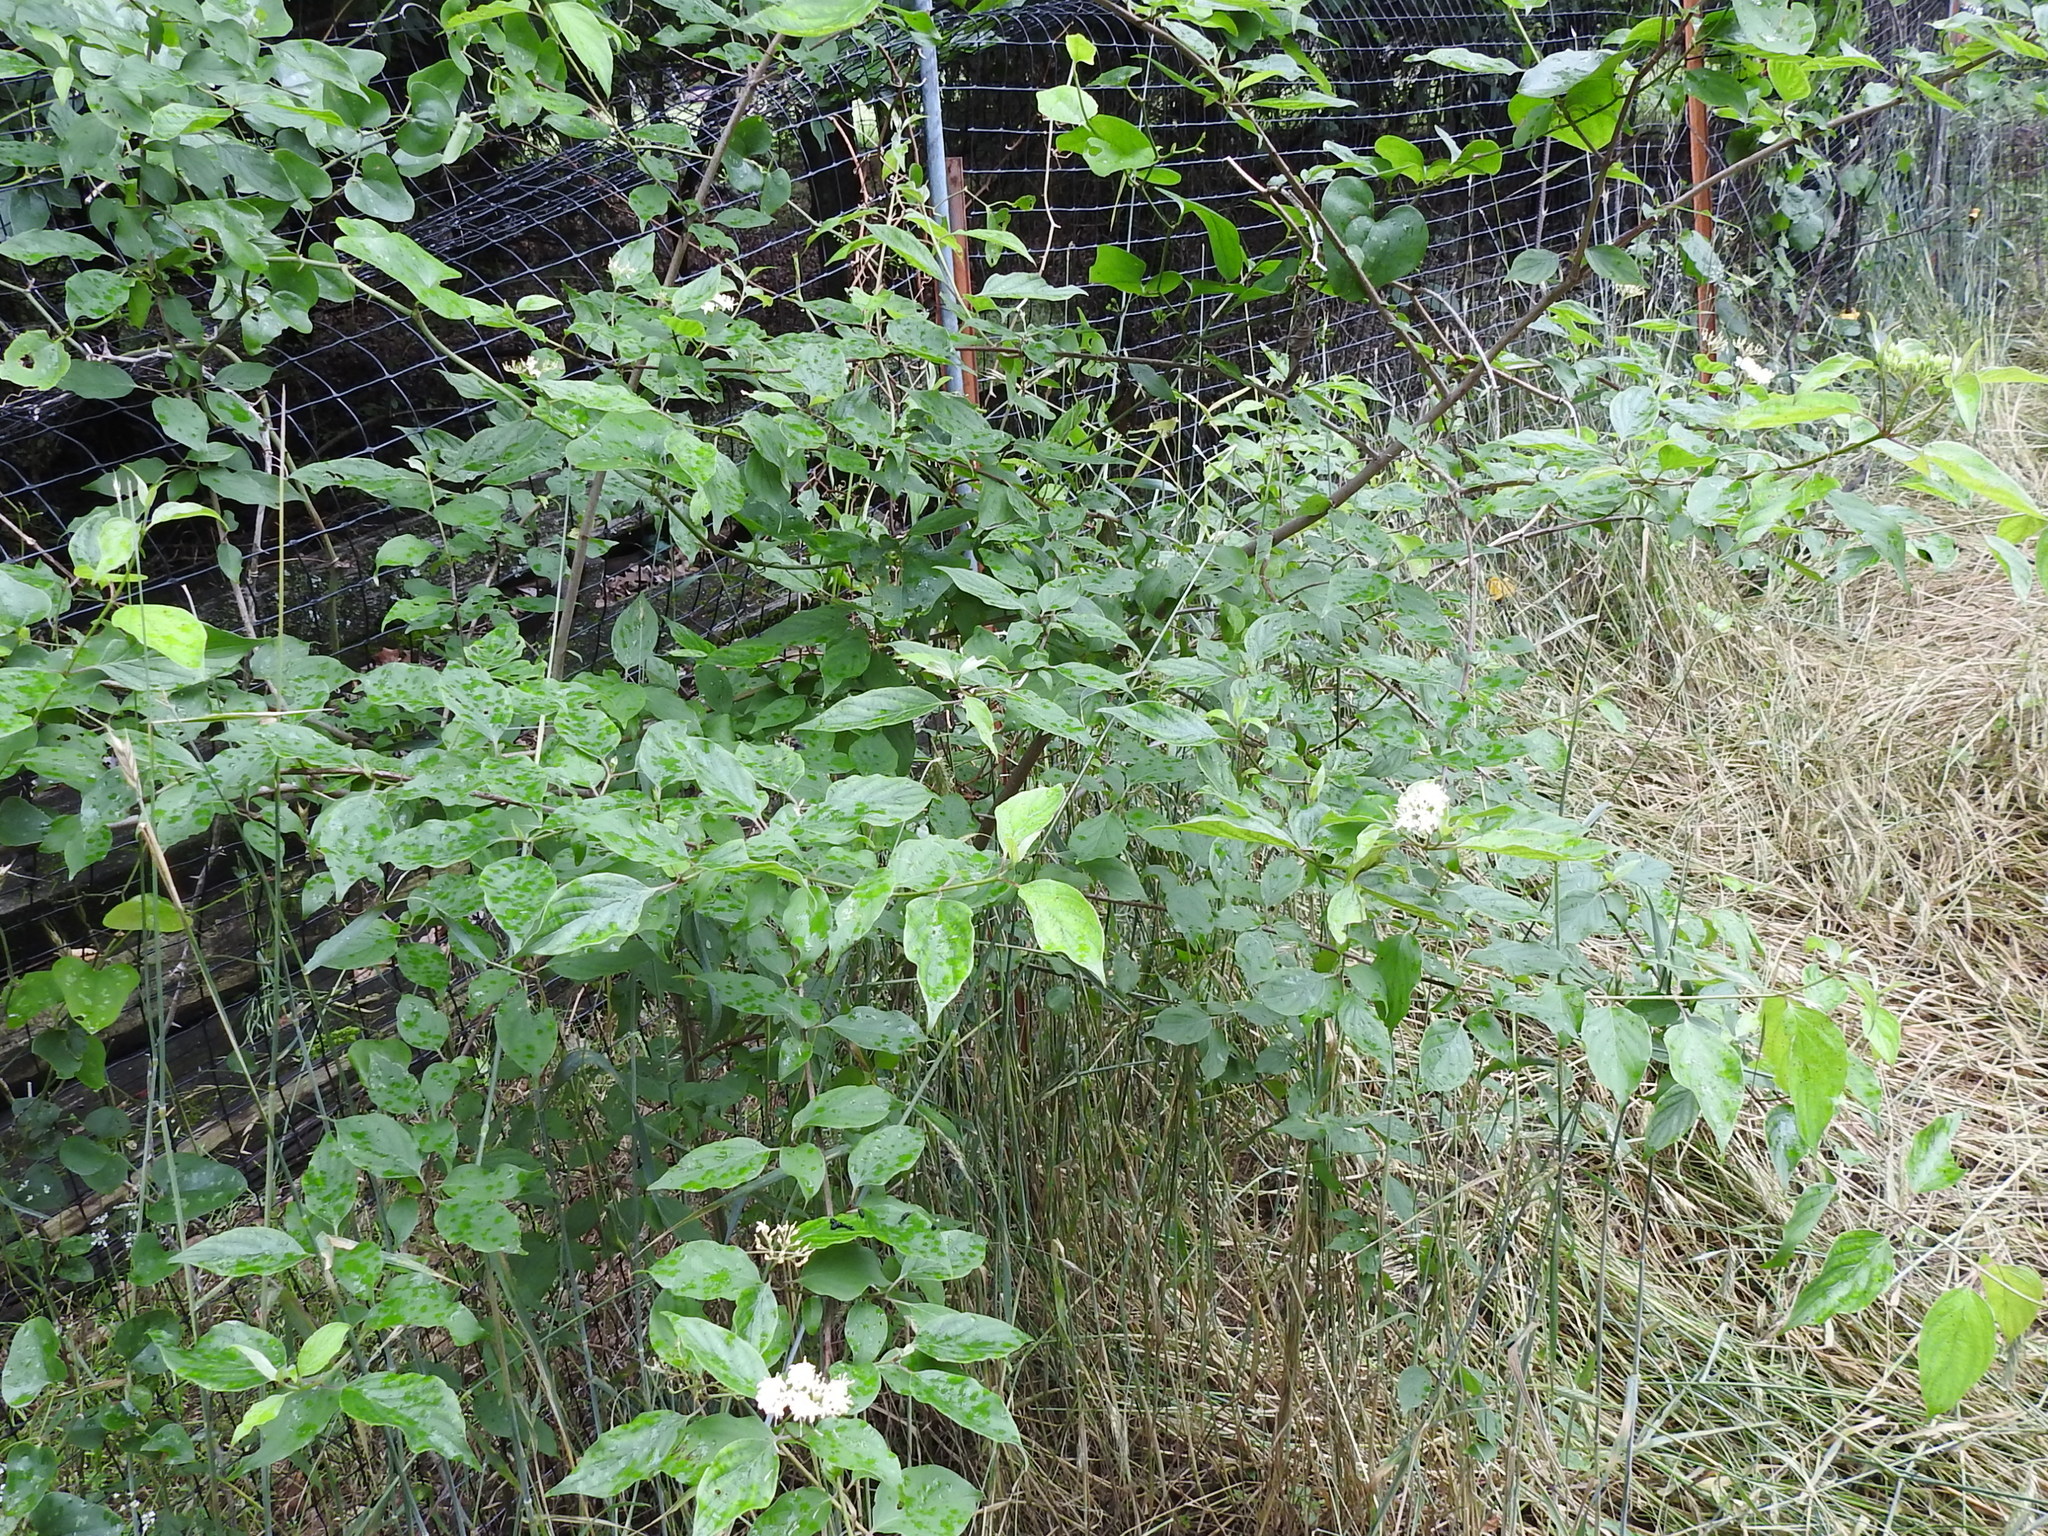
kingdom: Plantae
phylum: Tracheophyta
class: Magnoliopsida
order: Cornales
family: Cornaceae
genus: Cornus
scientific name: Cornus drummondii
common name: Rough-leaf dogwood
